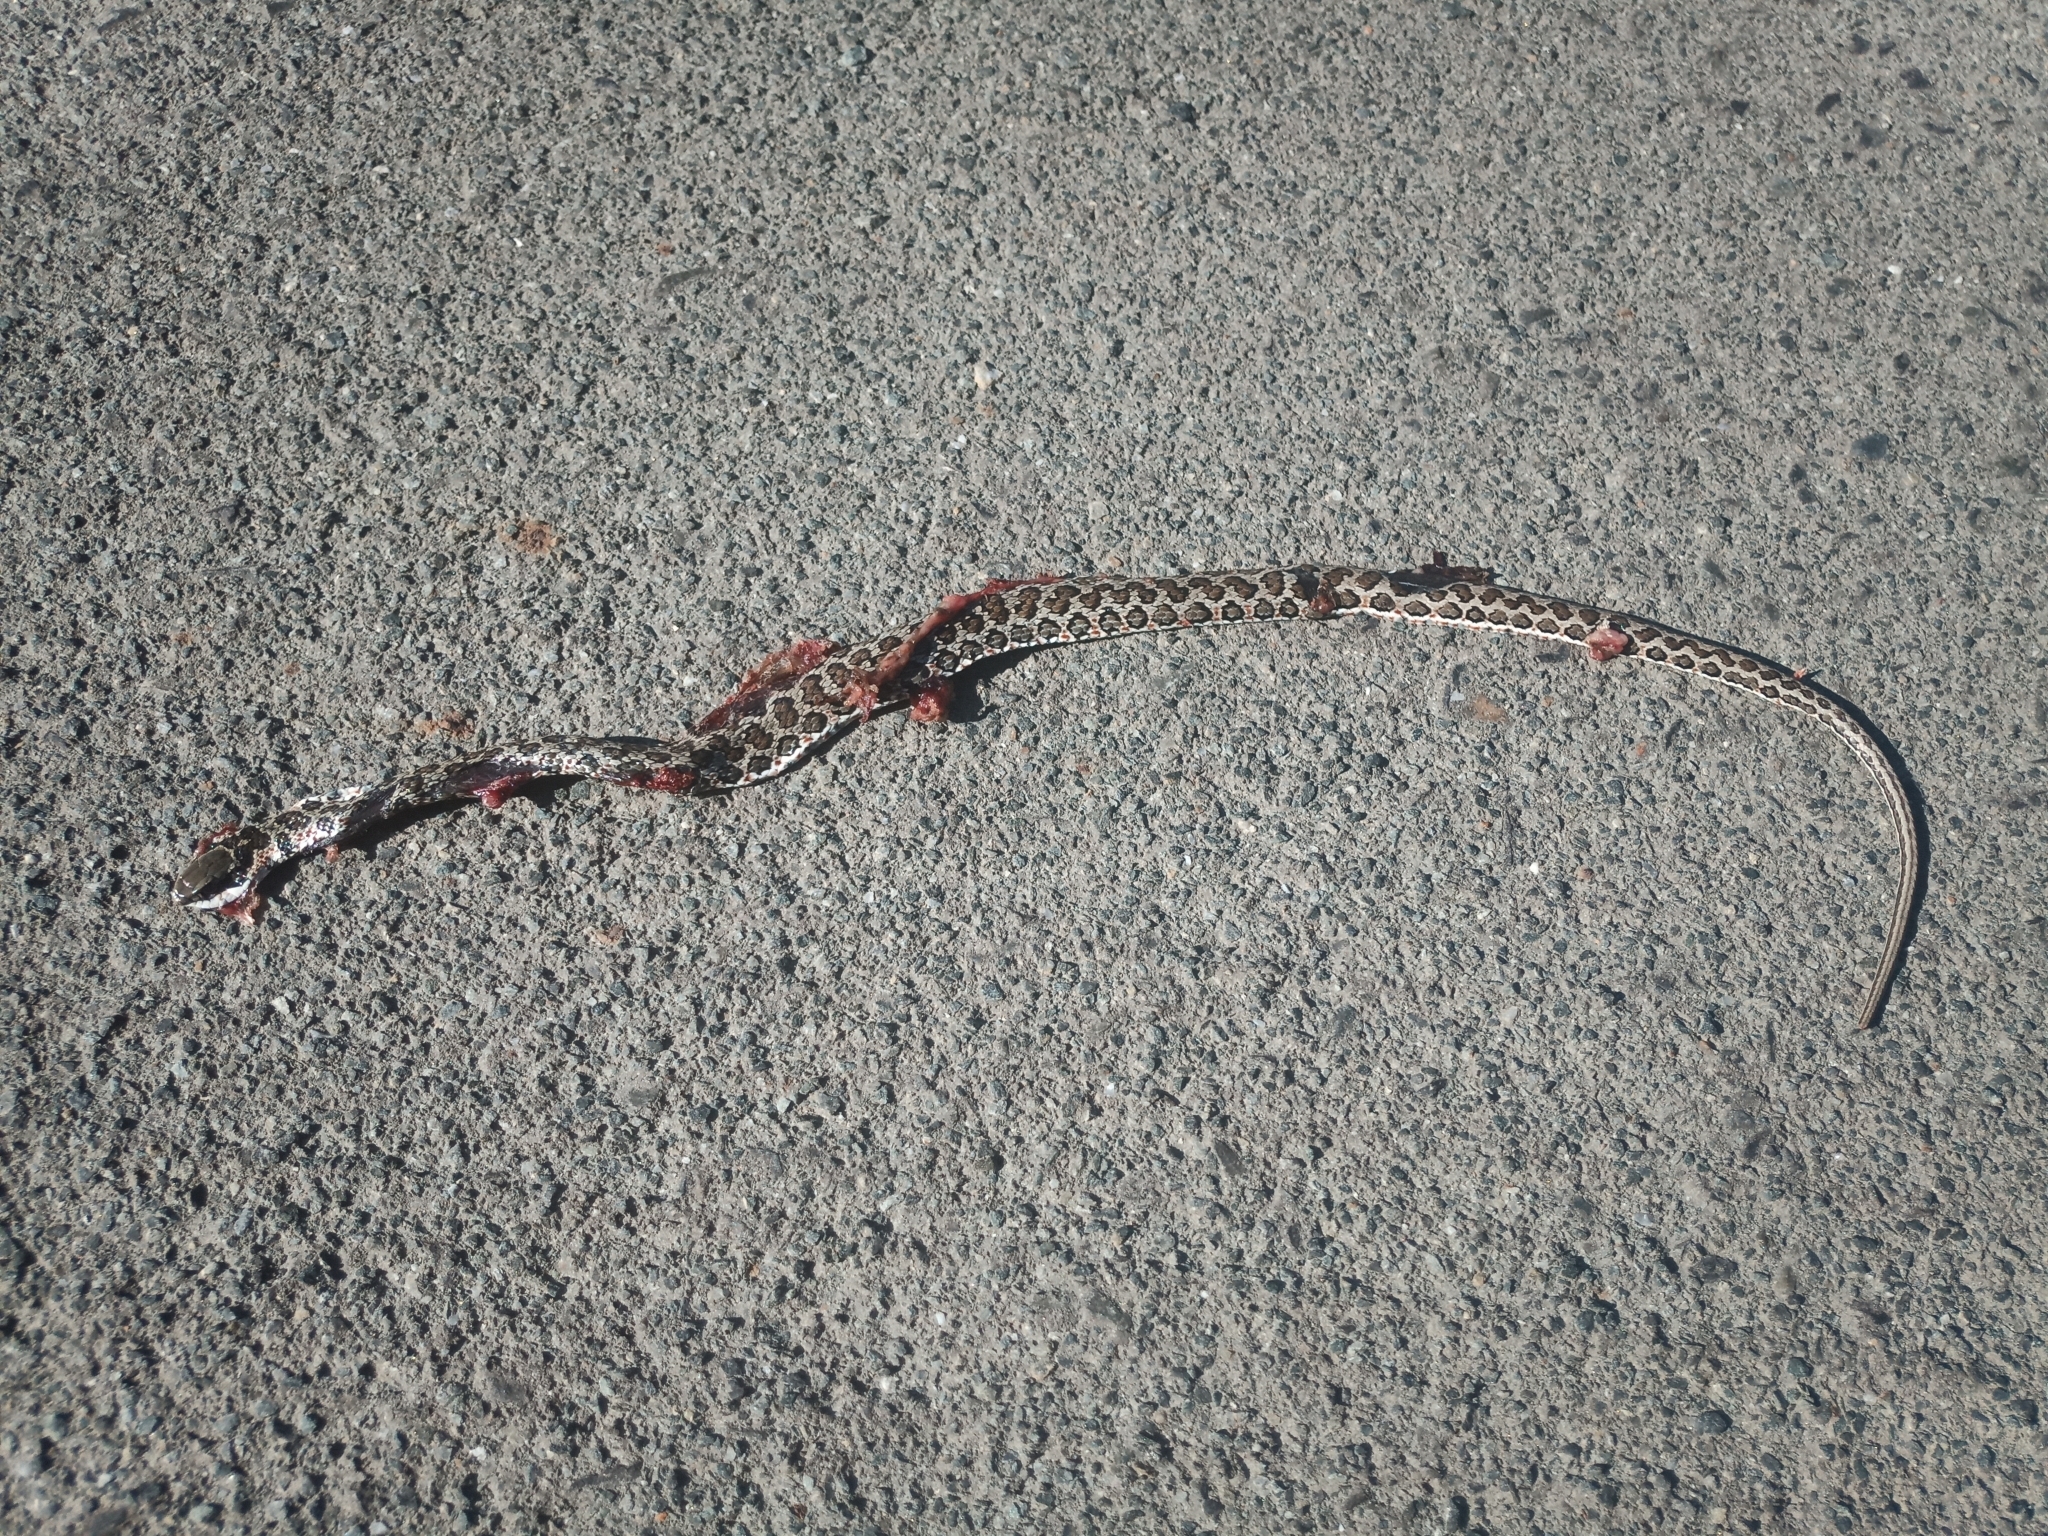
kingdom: Animalia
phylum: Chordata
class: Squamata
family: Psammophiidae
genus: Psammophylax
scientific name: Psammophylax rhombeatus
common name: Rhombic skaapsteker
